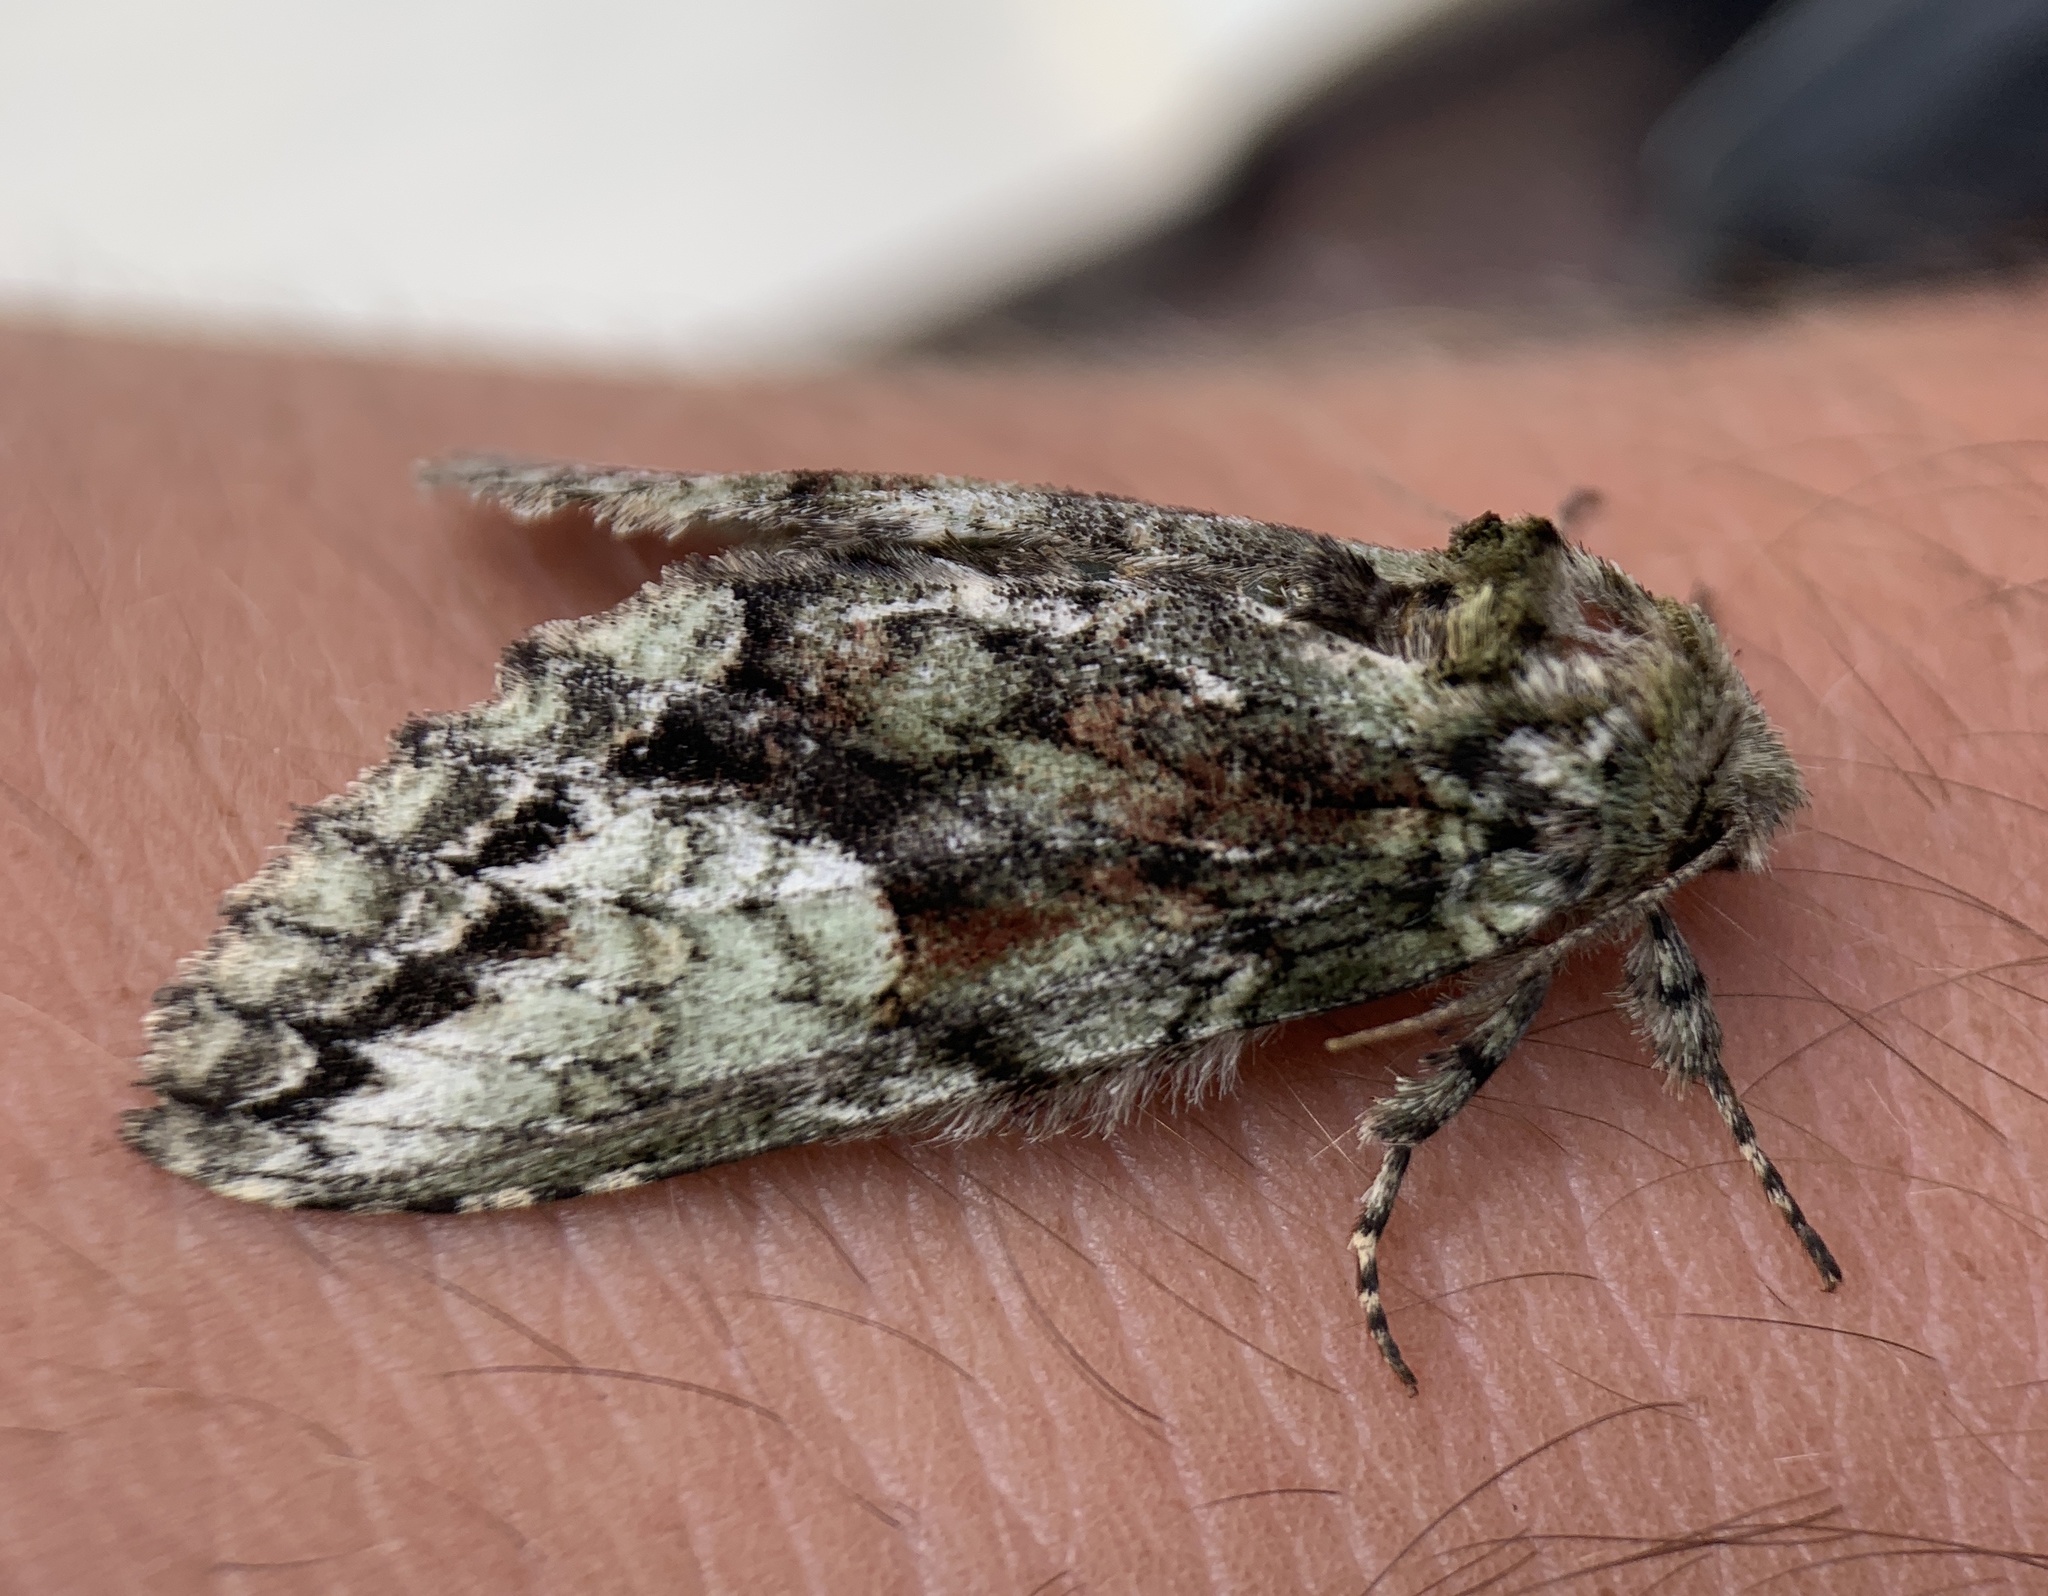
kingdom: Animalia
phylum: Arthropoda
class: Insecta
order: Lepidoptera
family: Notodontidae
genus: Heterocampa
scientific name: Heterocampa
